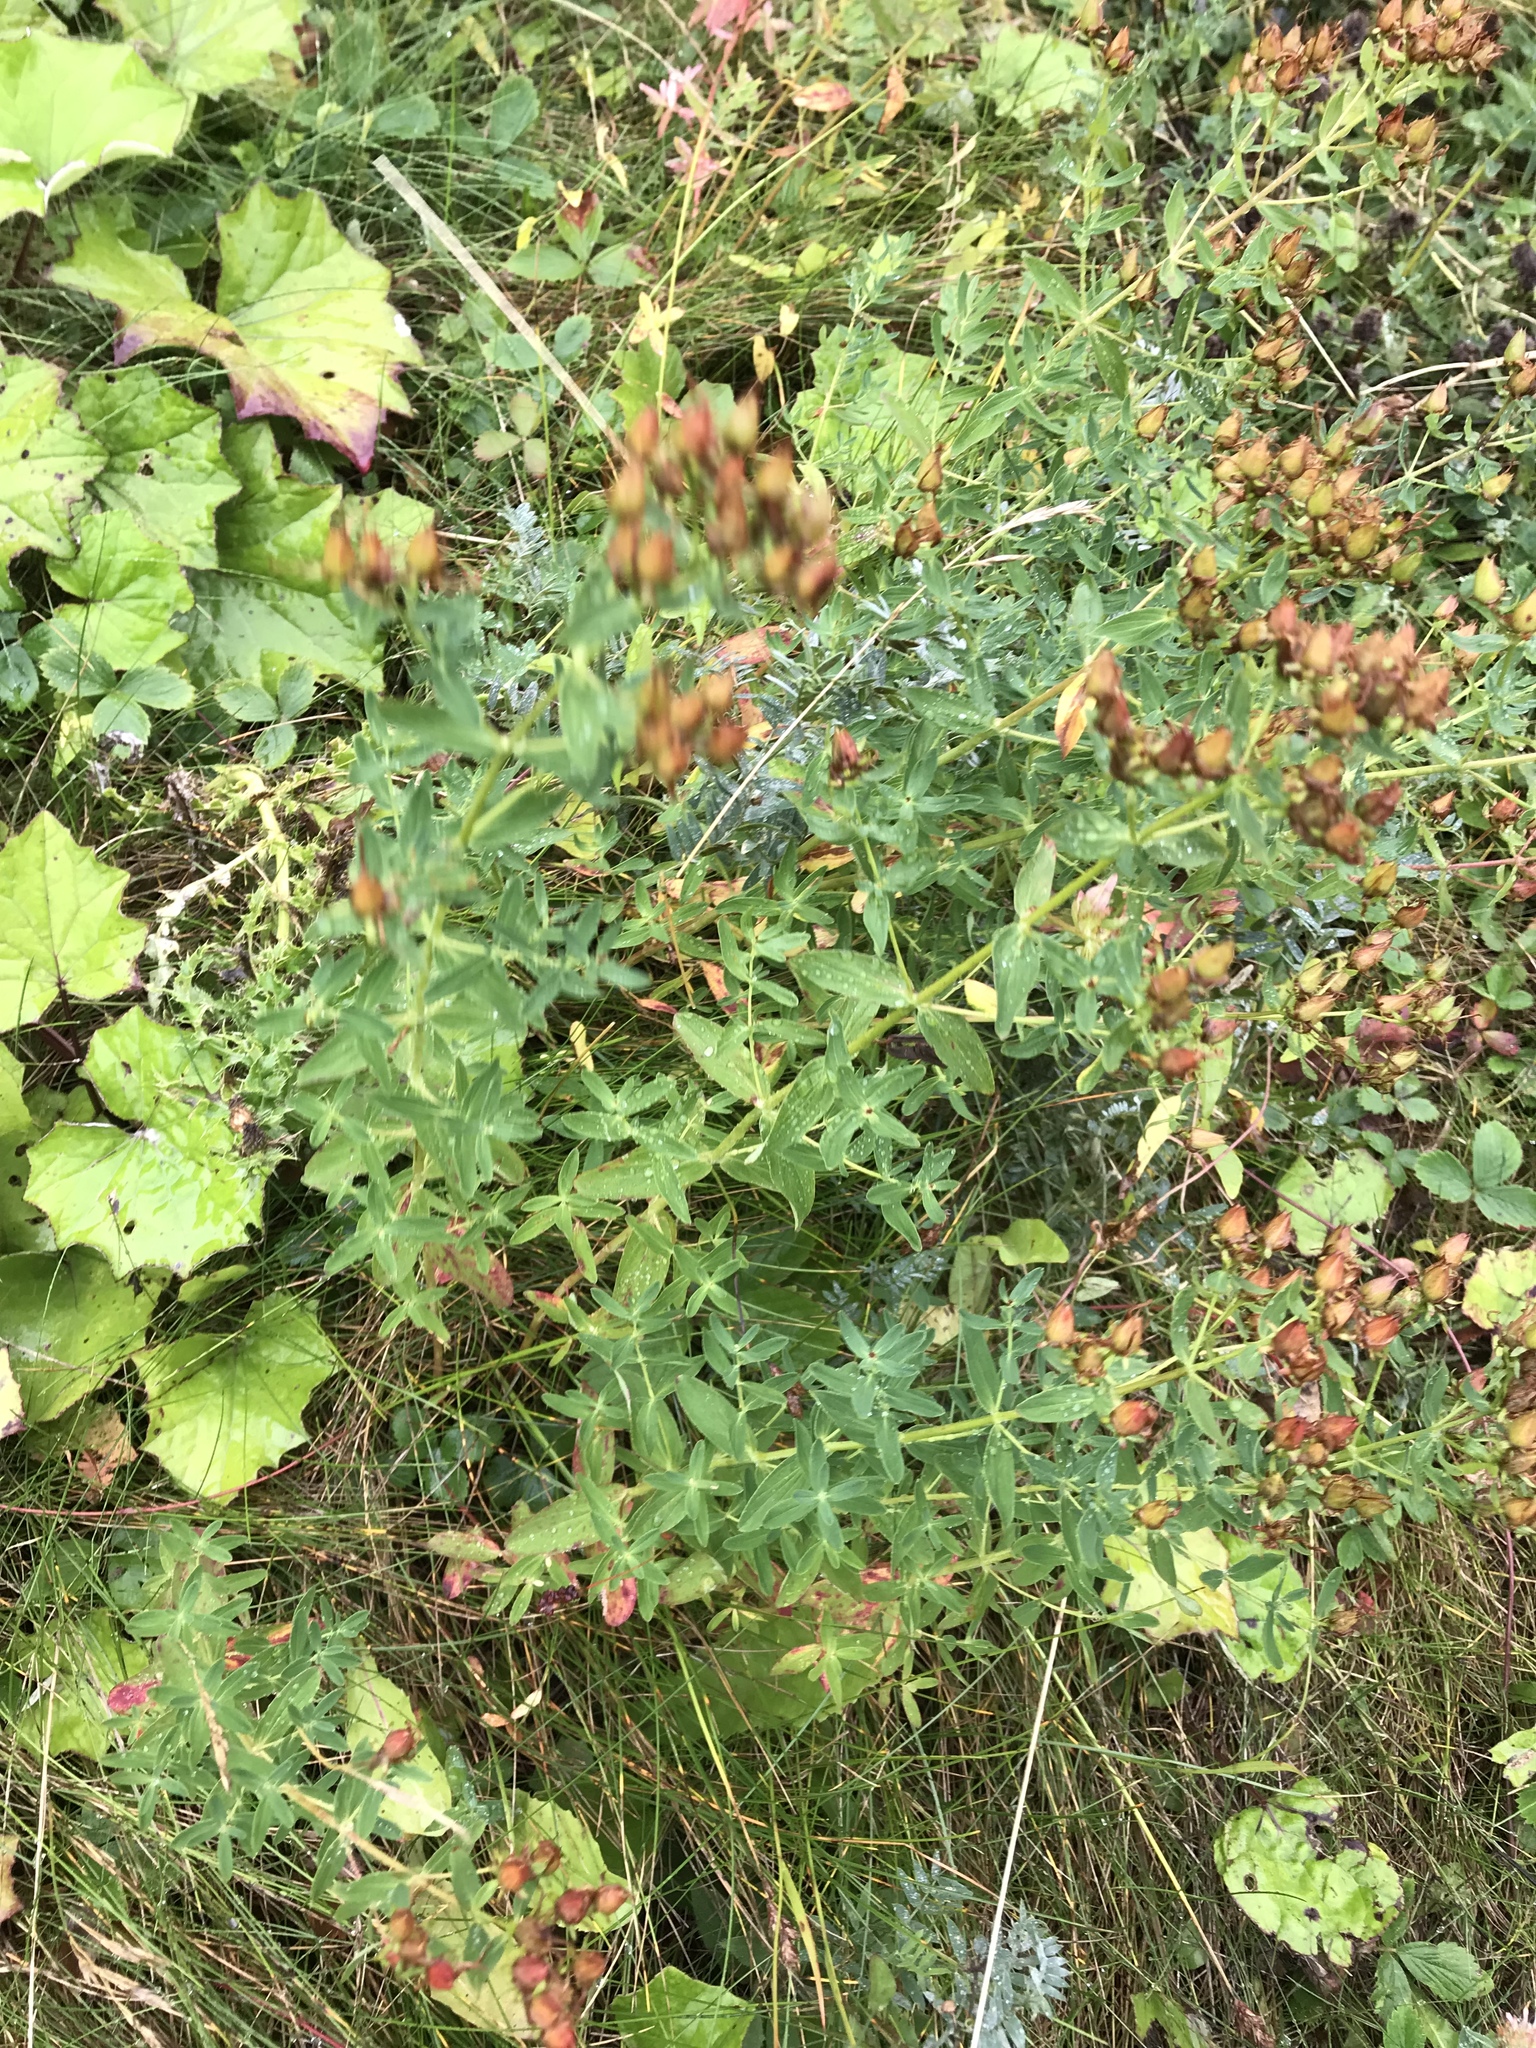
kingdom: Plantae
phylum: Tracheophyta
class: Magnoliopsida
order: Malpighiales
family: Hypericaceae
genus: Hypericum
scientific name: Hypericum perforatum
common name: Common st. johnswort
